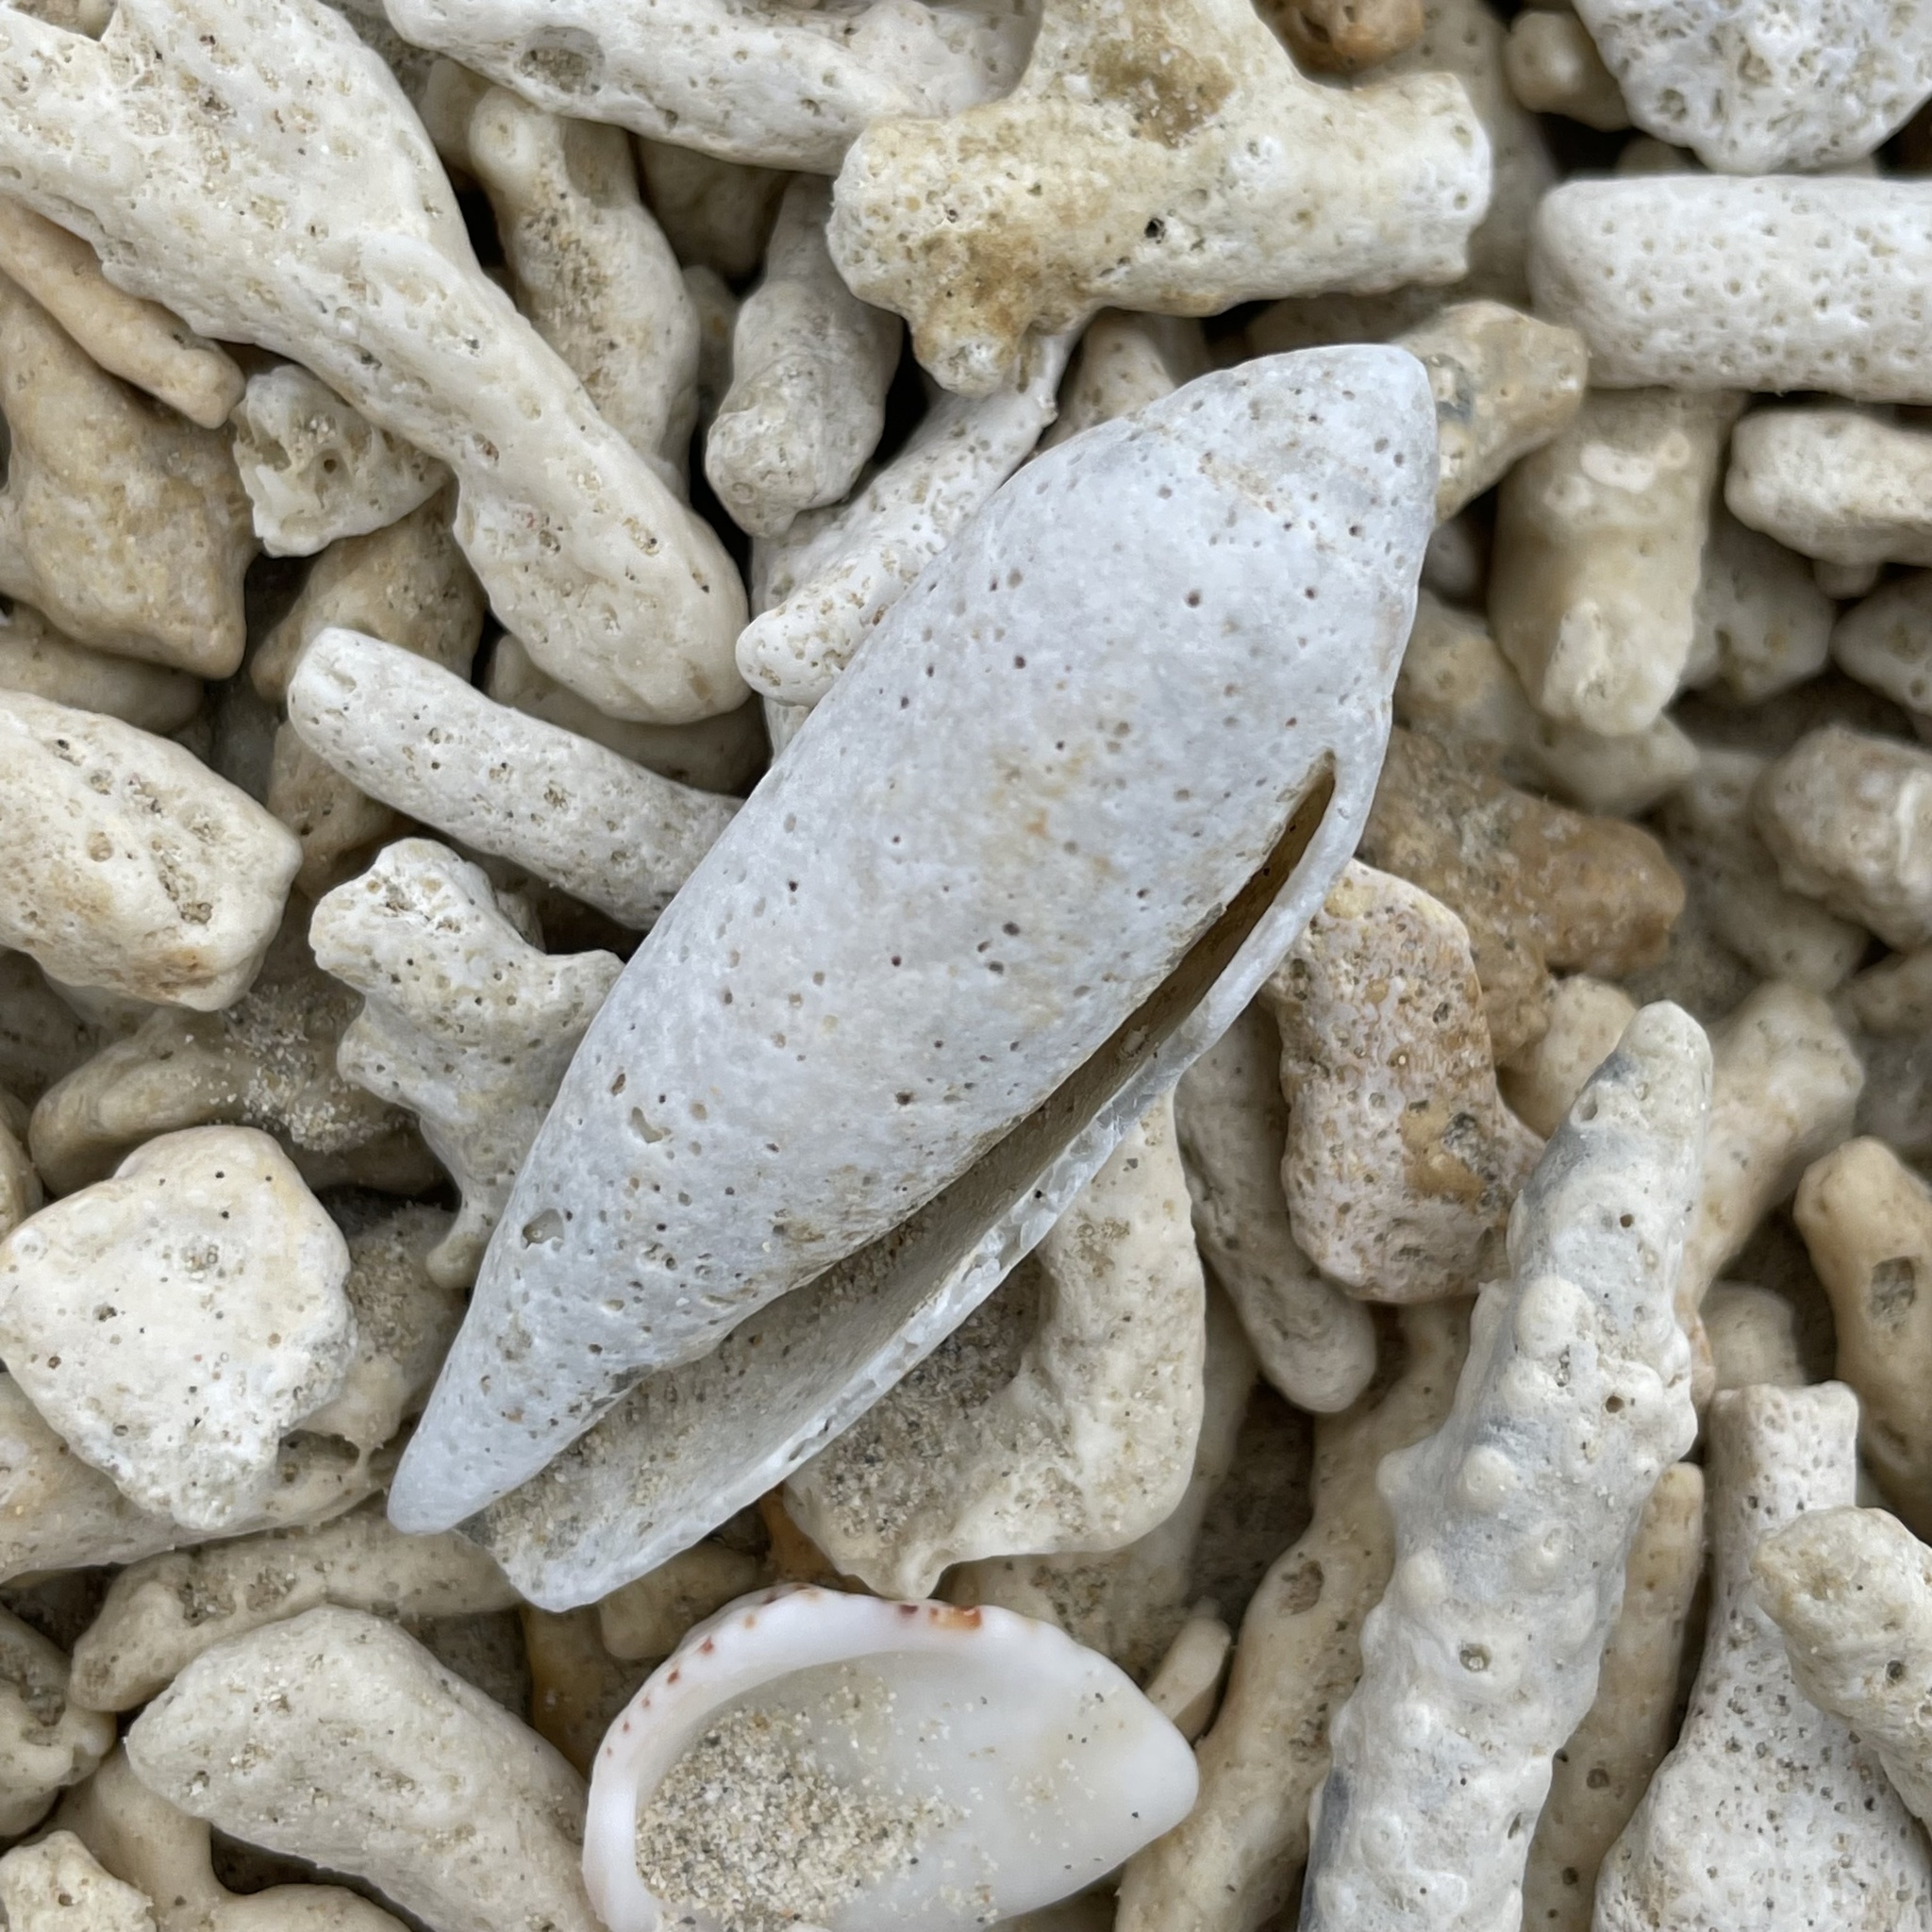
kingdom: Animalia
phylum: Mollusca
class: Gastropoda
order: Neogastropoda
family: Conidae
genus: Conus
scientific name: Conus nussatella
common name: Nussatella cone
